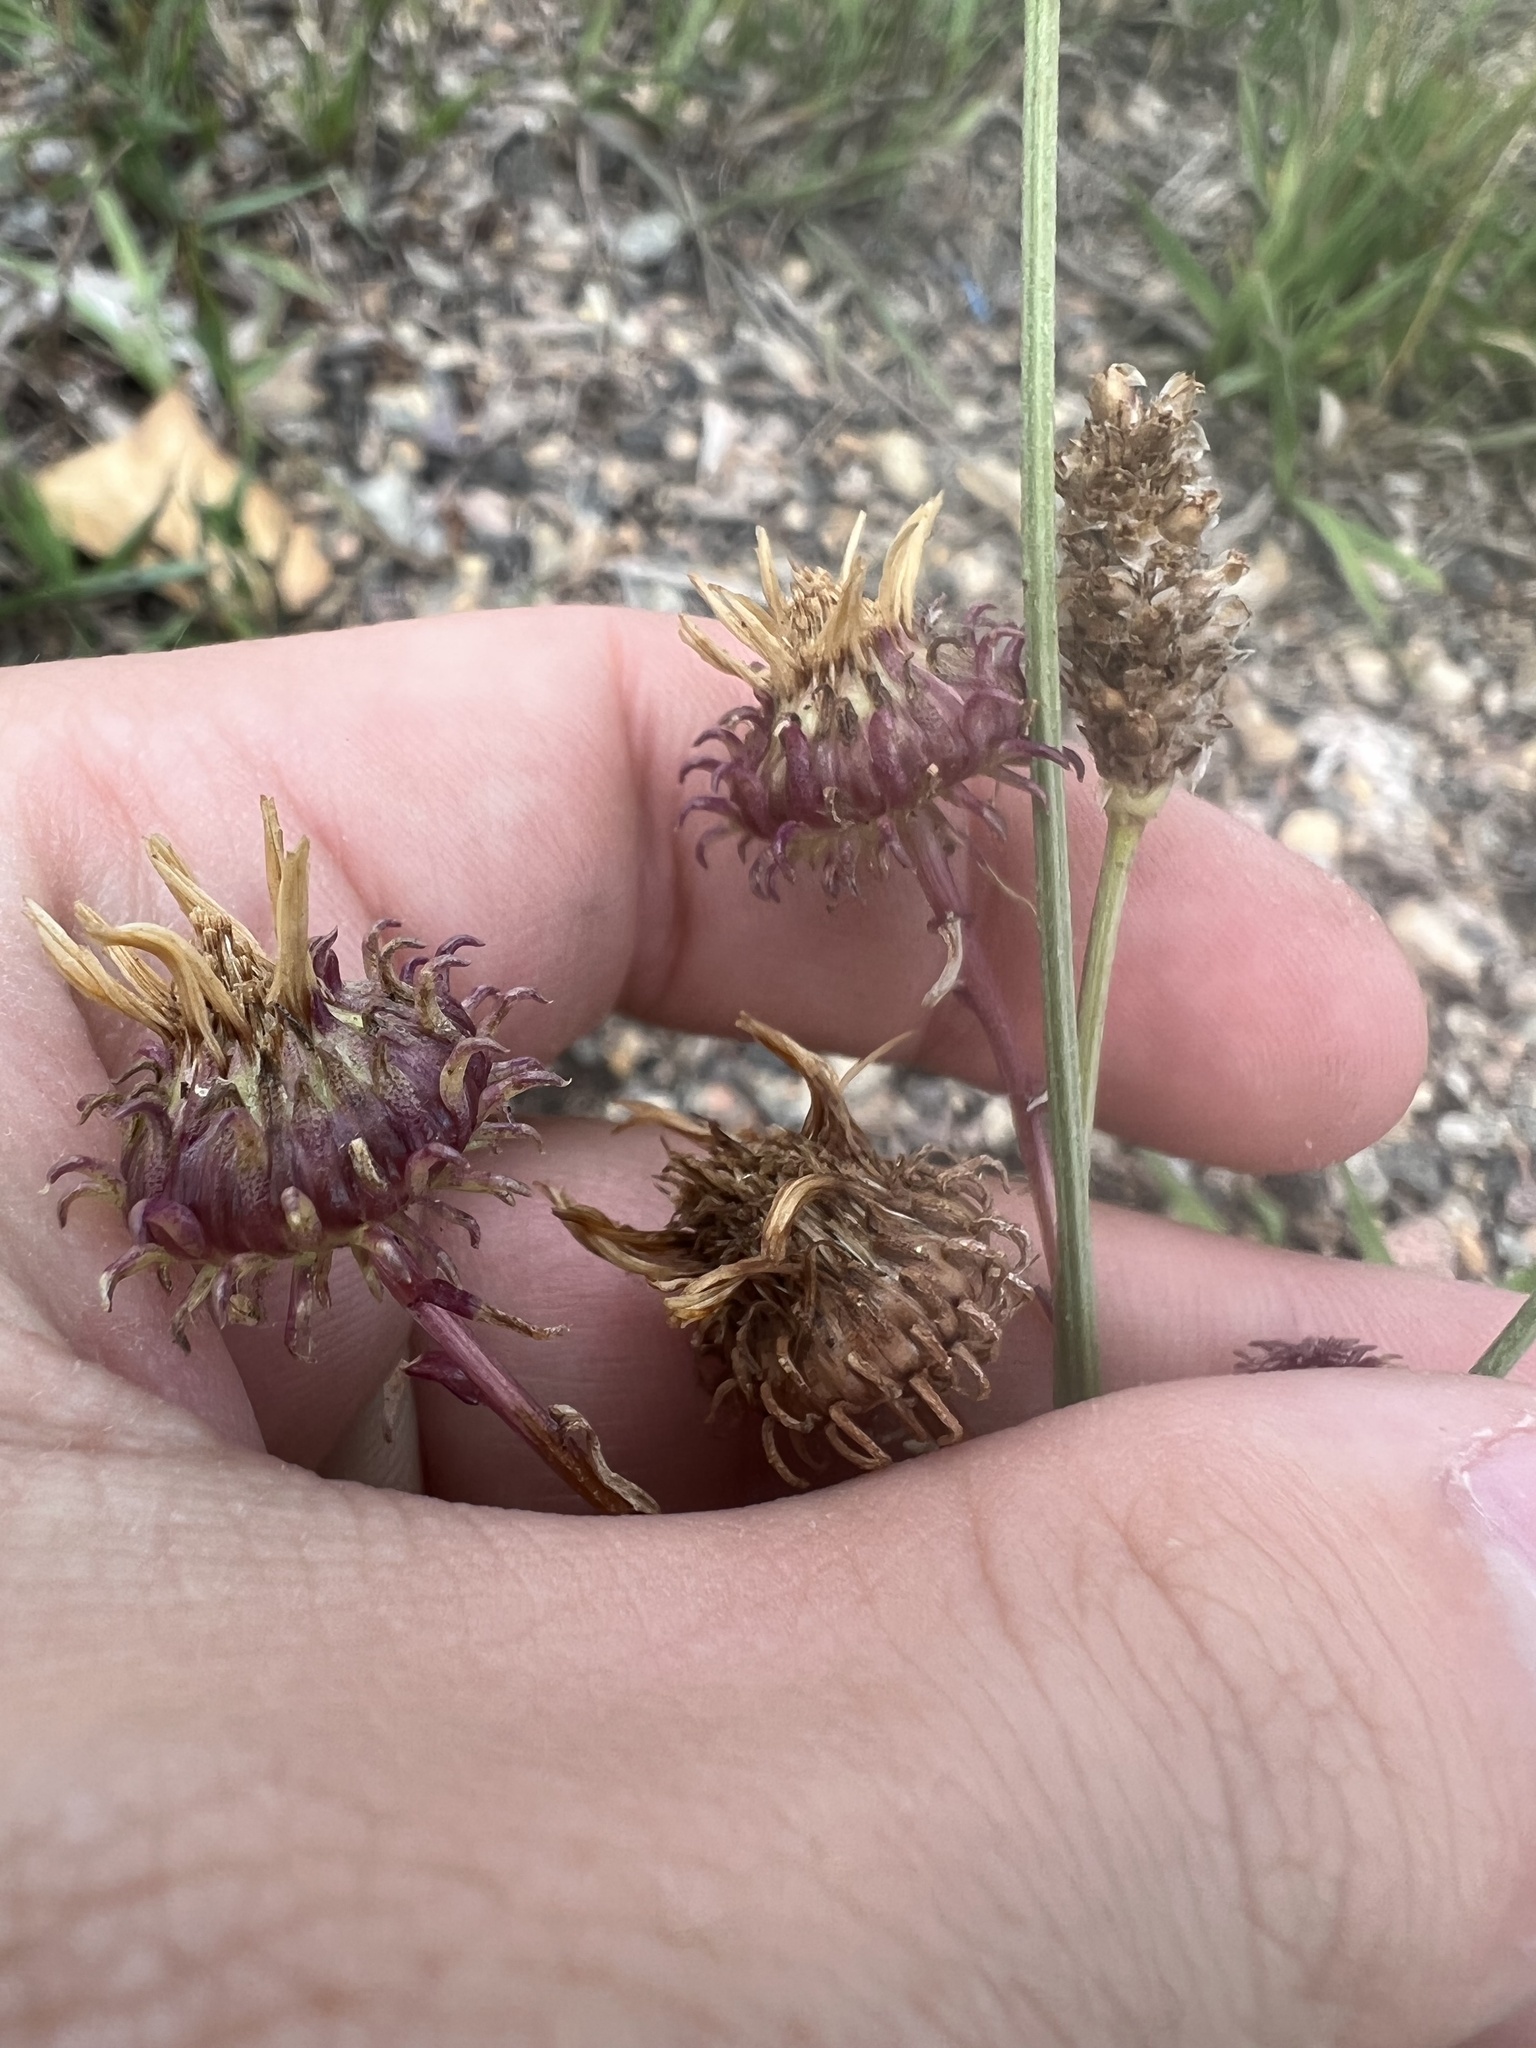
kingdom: Plantae
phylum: Tracheophyta
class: Magnoliopsida
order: Asterales
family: Asteraceae
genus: Grindelia
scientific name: Grindelia squarrosa
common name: Curly-cup gumweed
